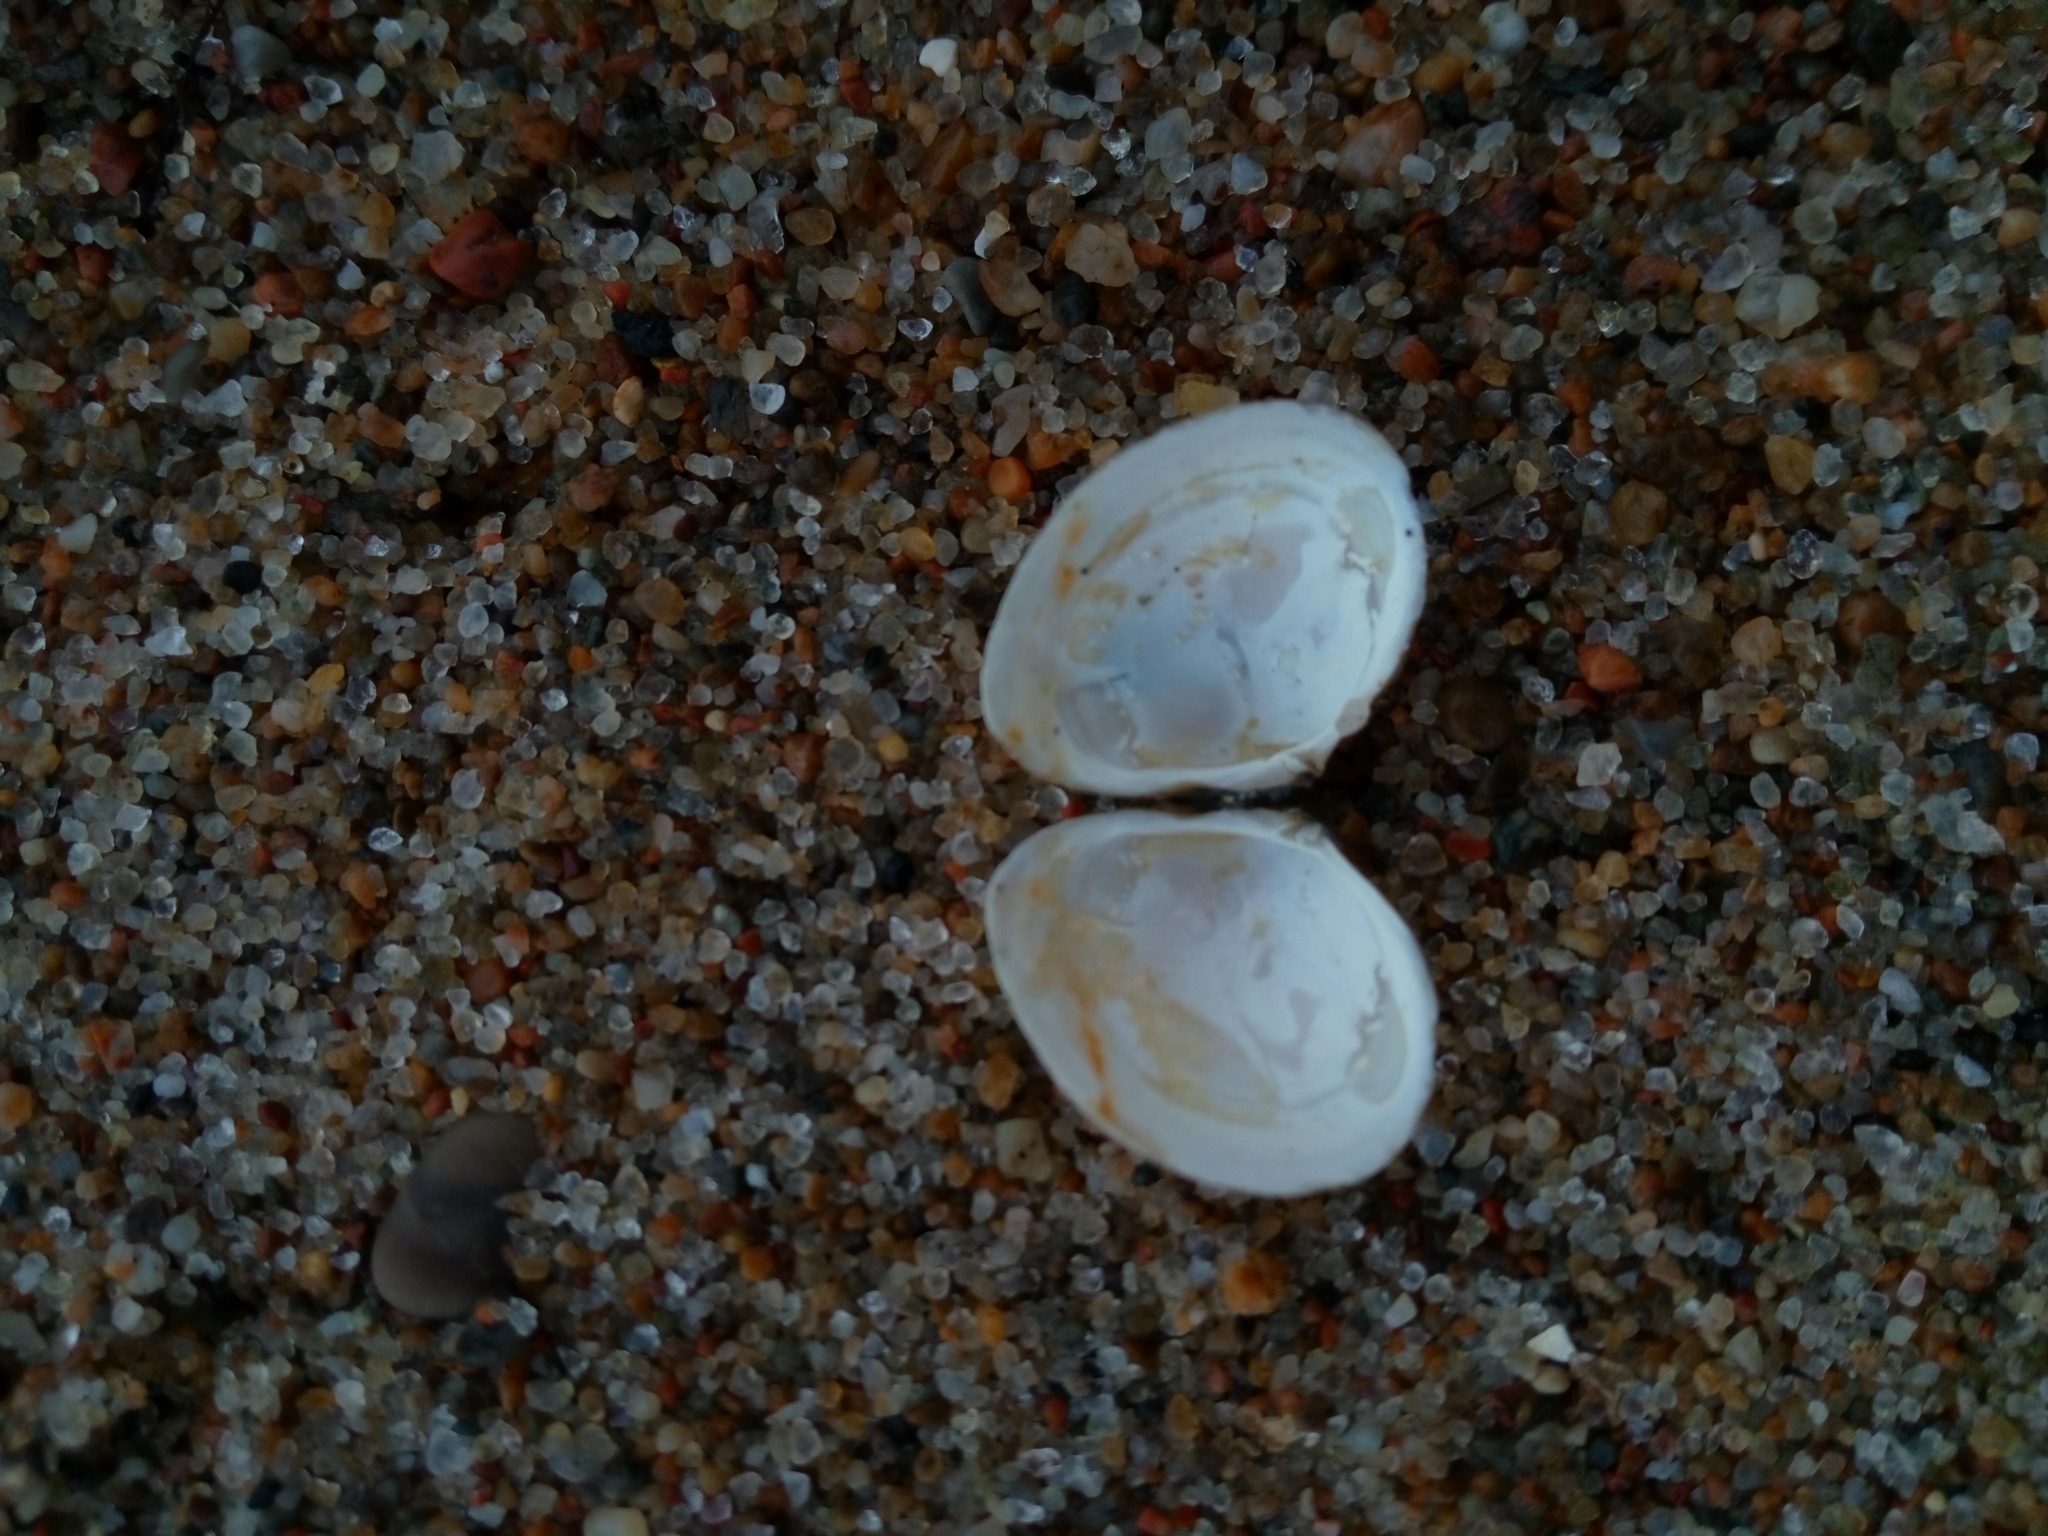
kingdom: Animalia
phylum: Mollusca
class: Bivalvia
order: Cardiida
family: Tellinidae
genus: Macoma
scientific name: Macoma balthica
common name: Baltic tellin
